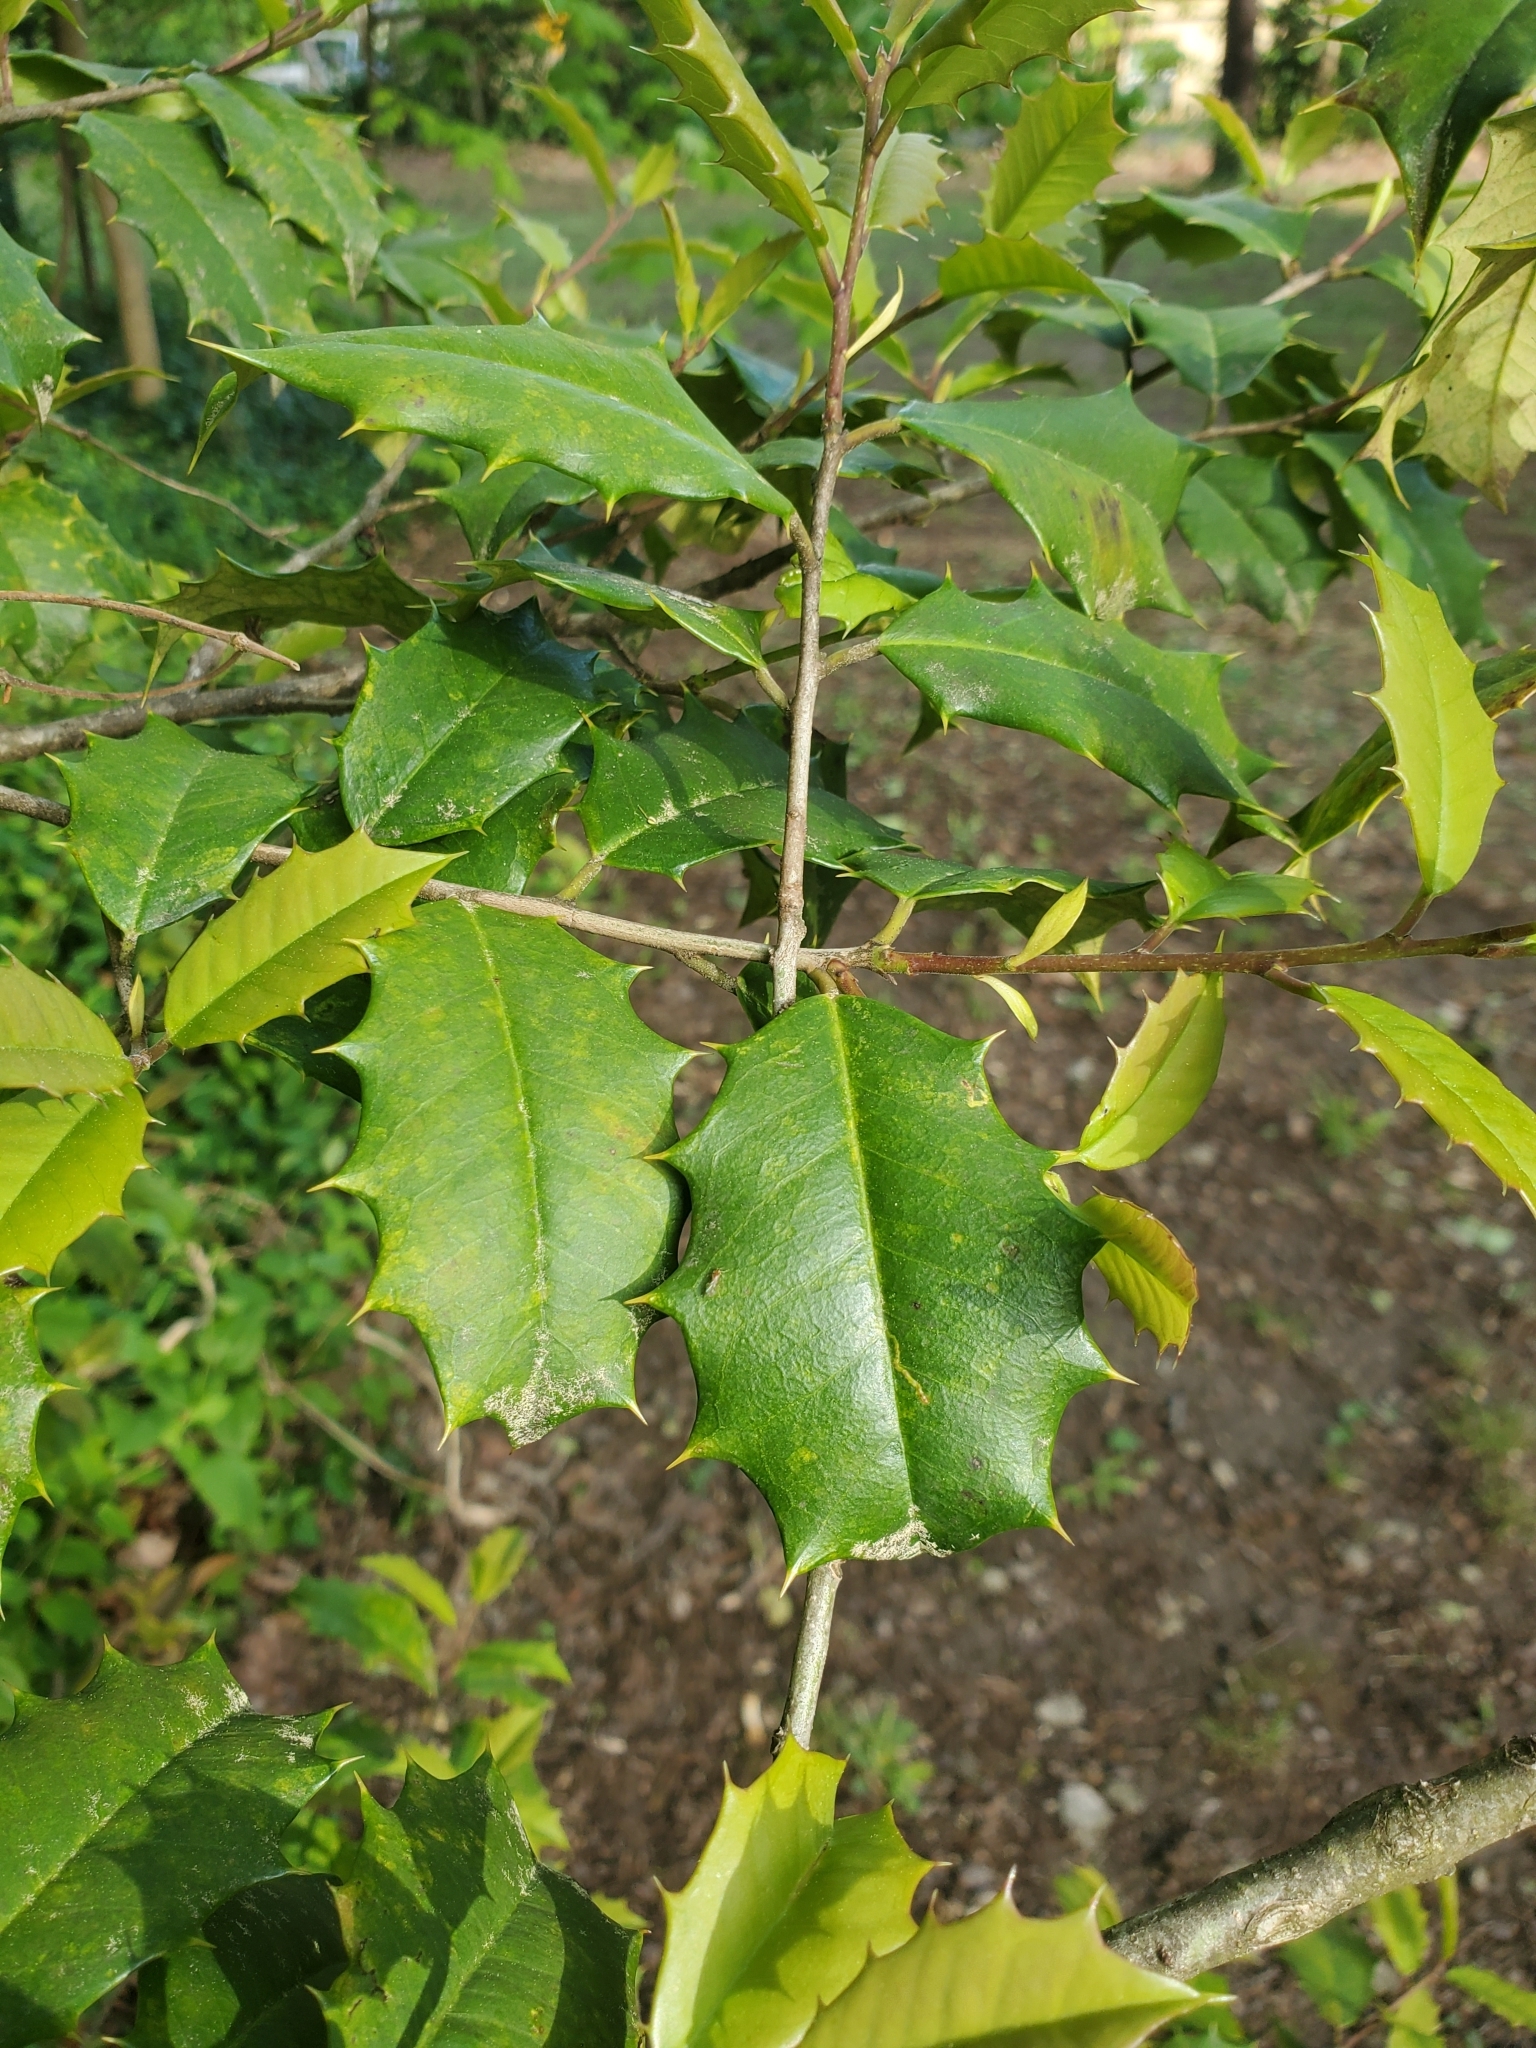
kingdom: Plantae
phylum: Tracheophyta
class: Magnoliopsida
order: Aquifoliales
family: Aquifoliaceae
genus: Ilex
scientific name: Ilex opaca
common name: American holly
